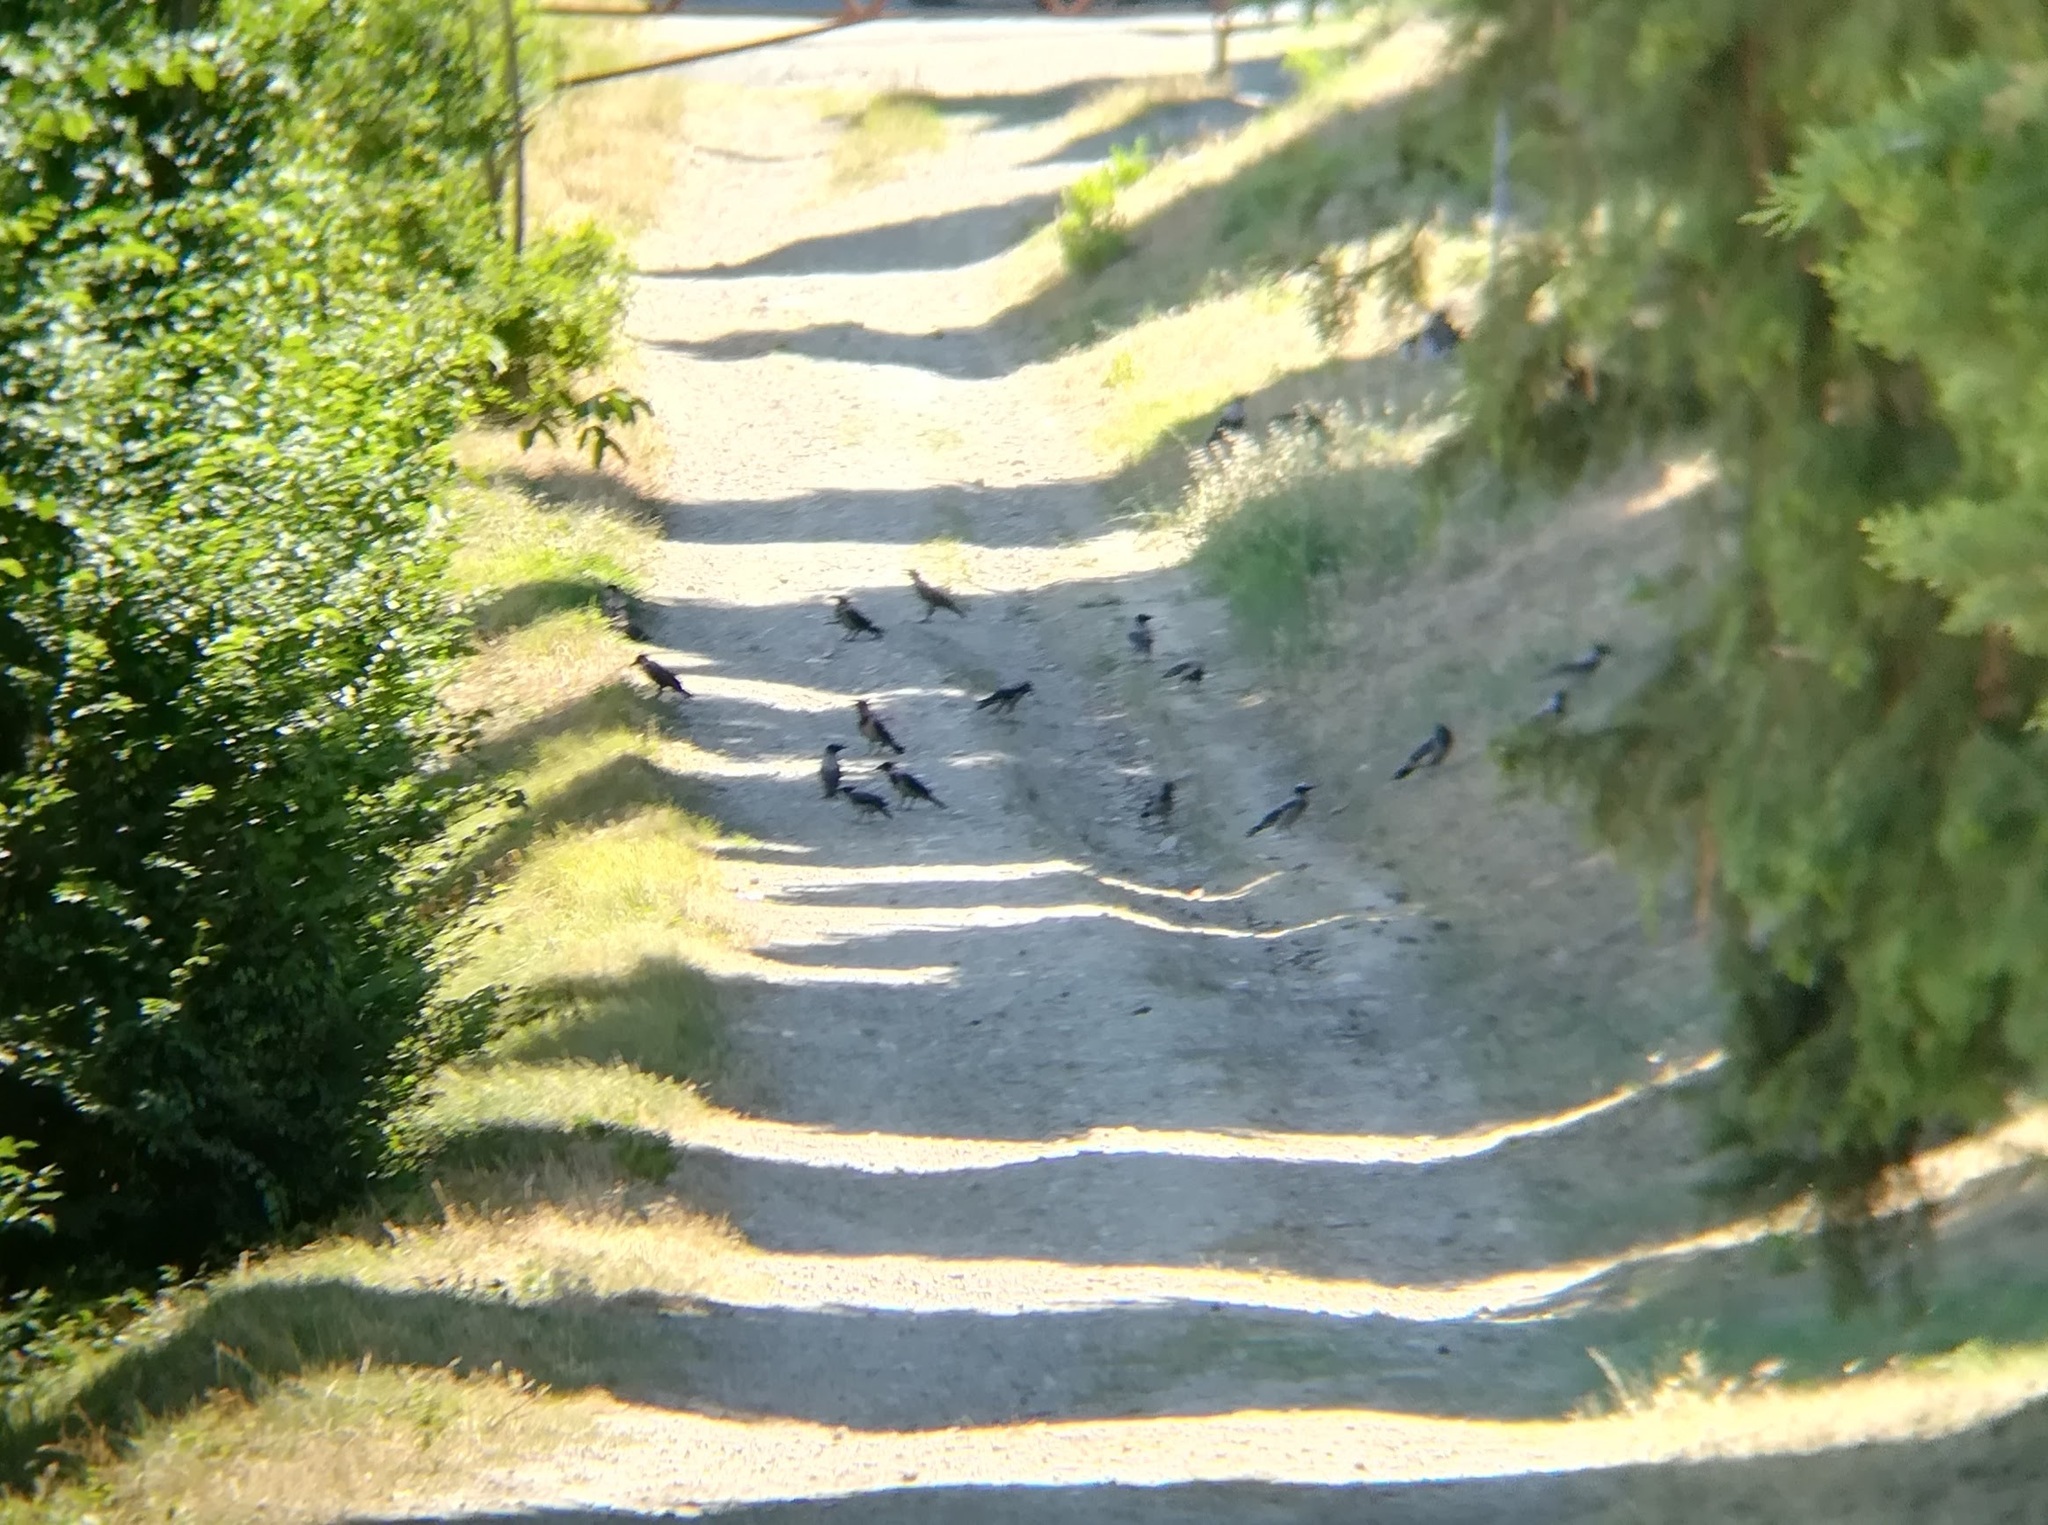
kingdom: Animalia
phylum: Chordata
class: Aves
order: Passeriformes
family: Corvidae
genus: Corvus
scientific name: Corvus cornix
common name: Hooded crow
